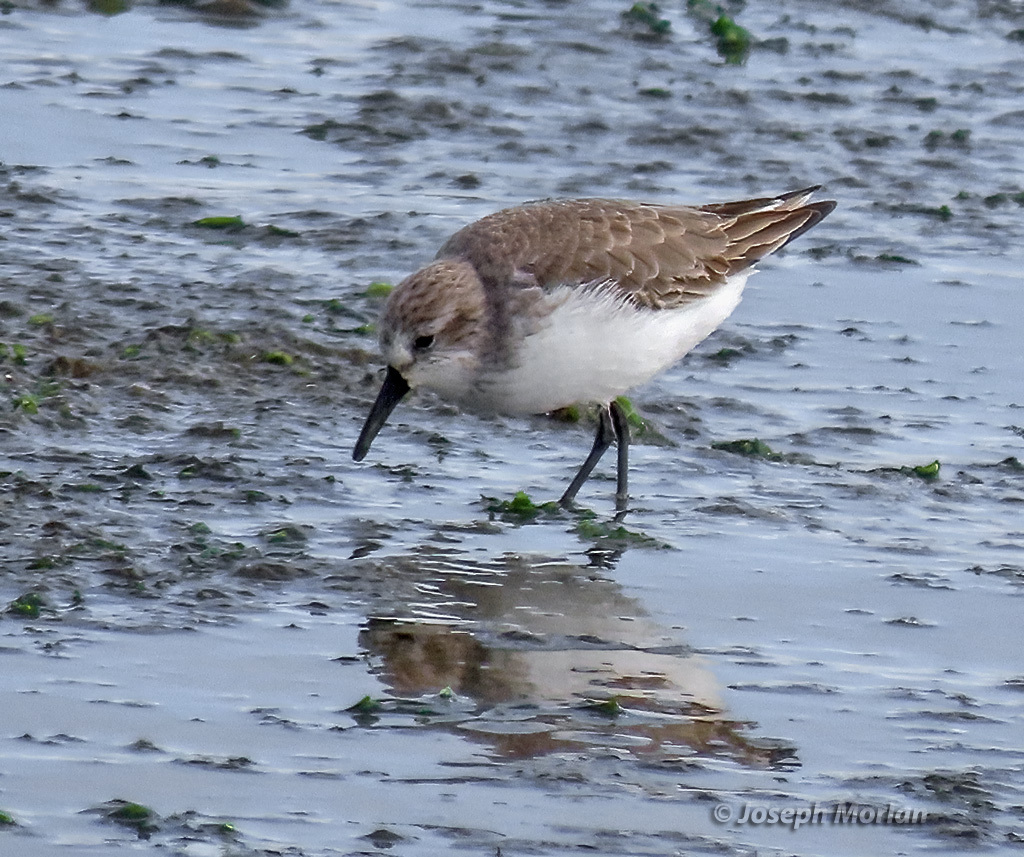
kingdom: Animalia
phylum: Chordata
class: Aves
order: Charadriiformes
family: Scolopacidae
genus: Calidris
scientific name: Calidris mauri
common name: Western sandpiper
